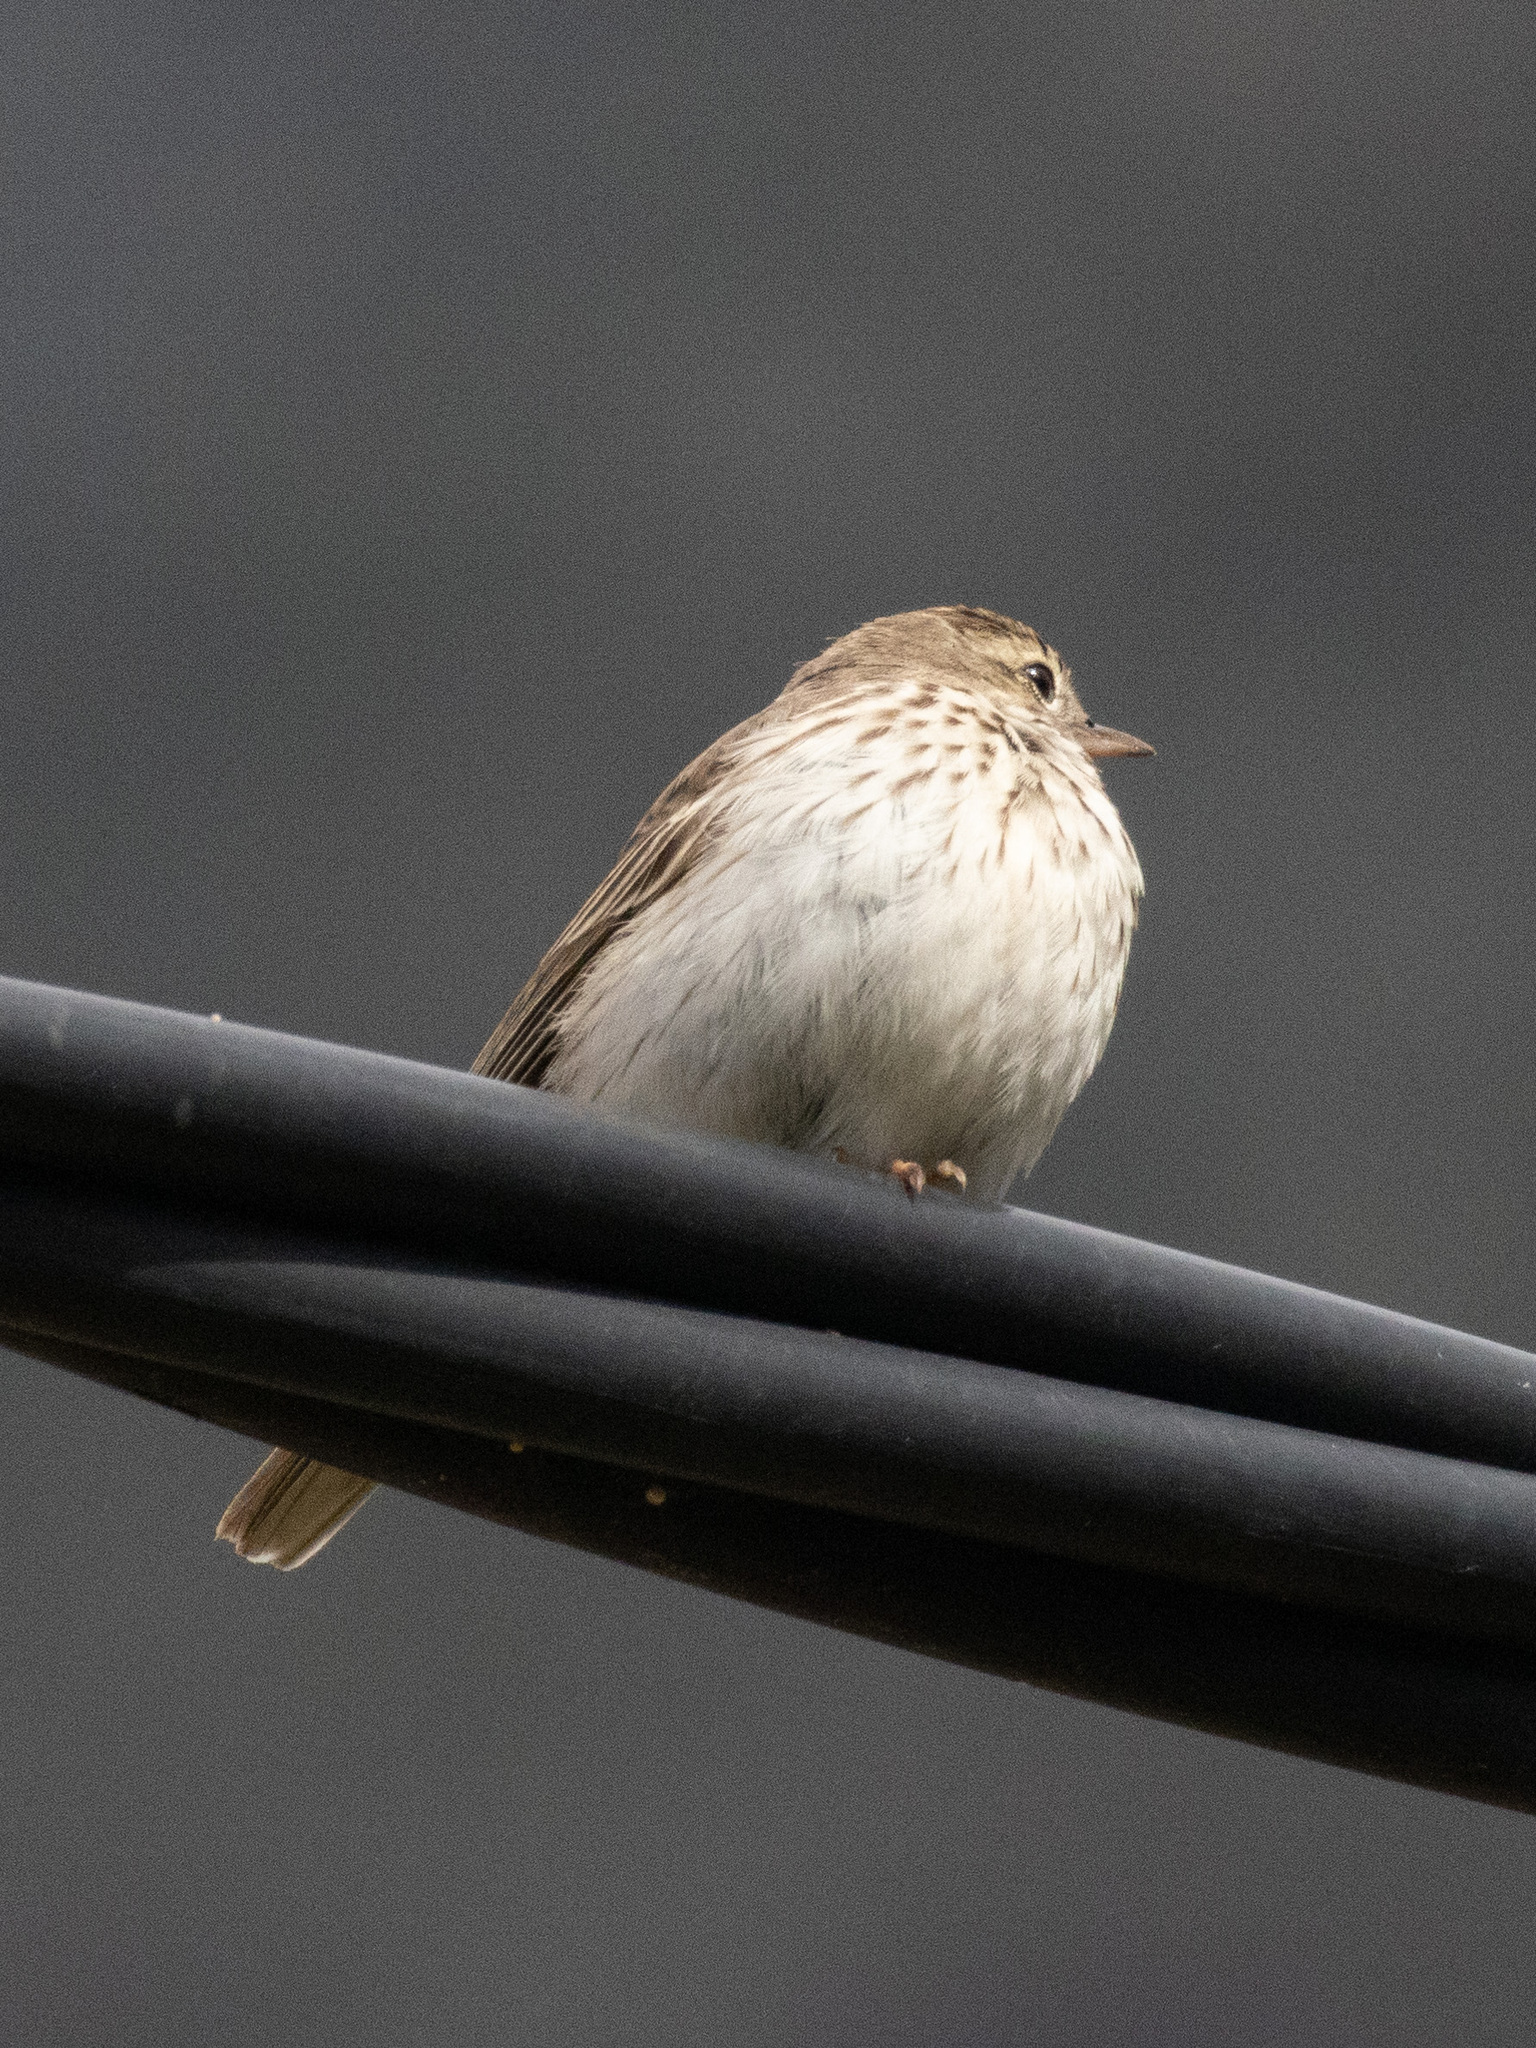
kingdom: Animalia
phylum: Chordata
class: Aves
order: Passeriformes
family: Motacillidae
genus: Anthus
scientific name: Anthus berthelotii
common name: Berthelot's pipit
